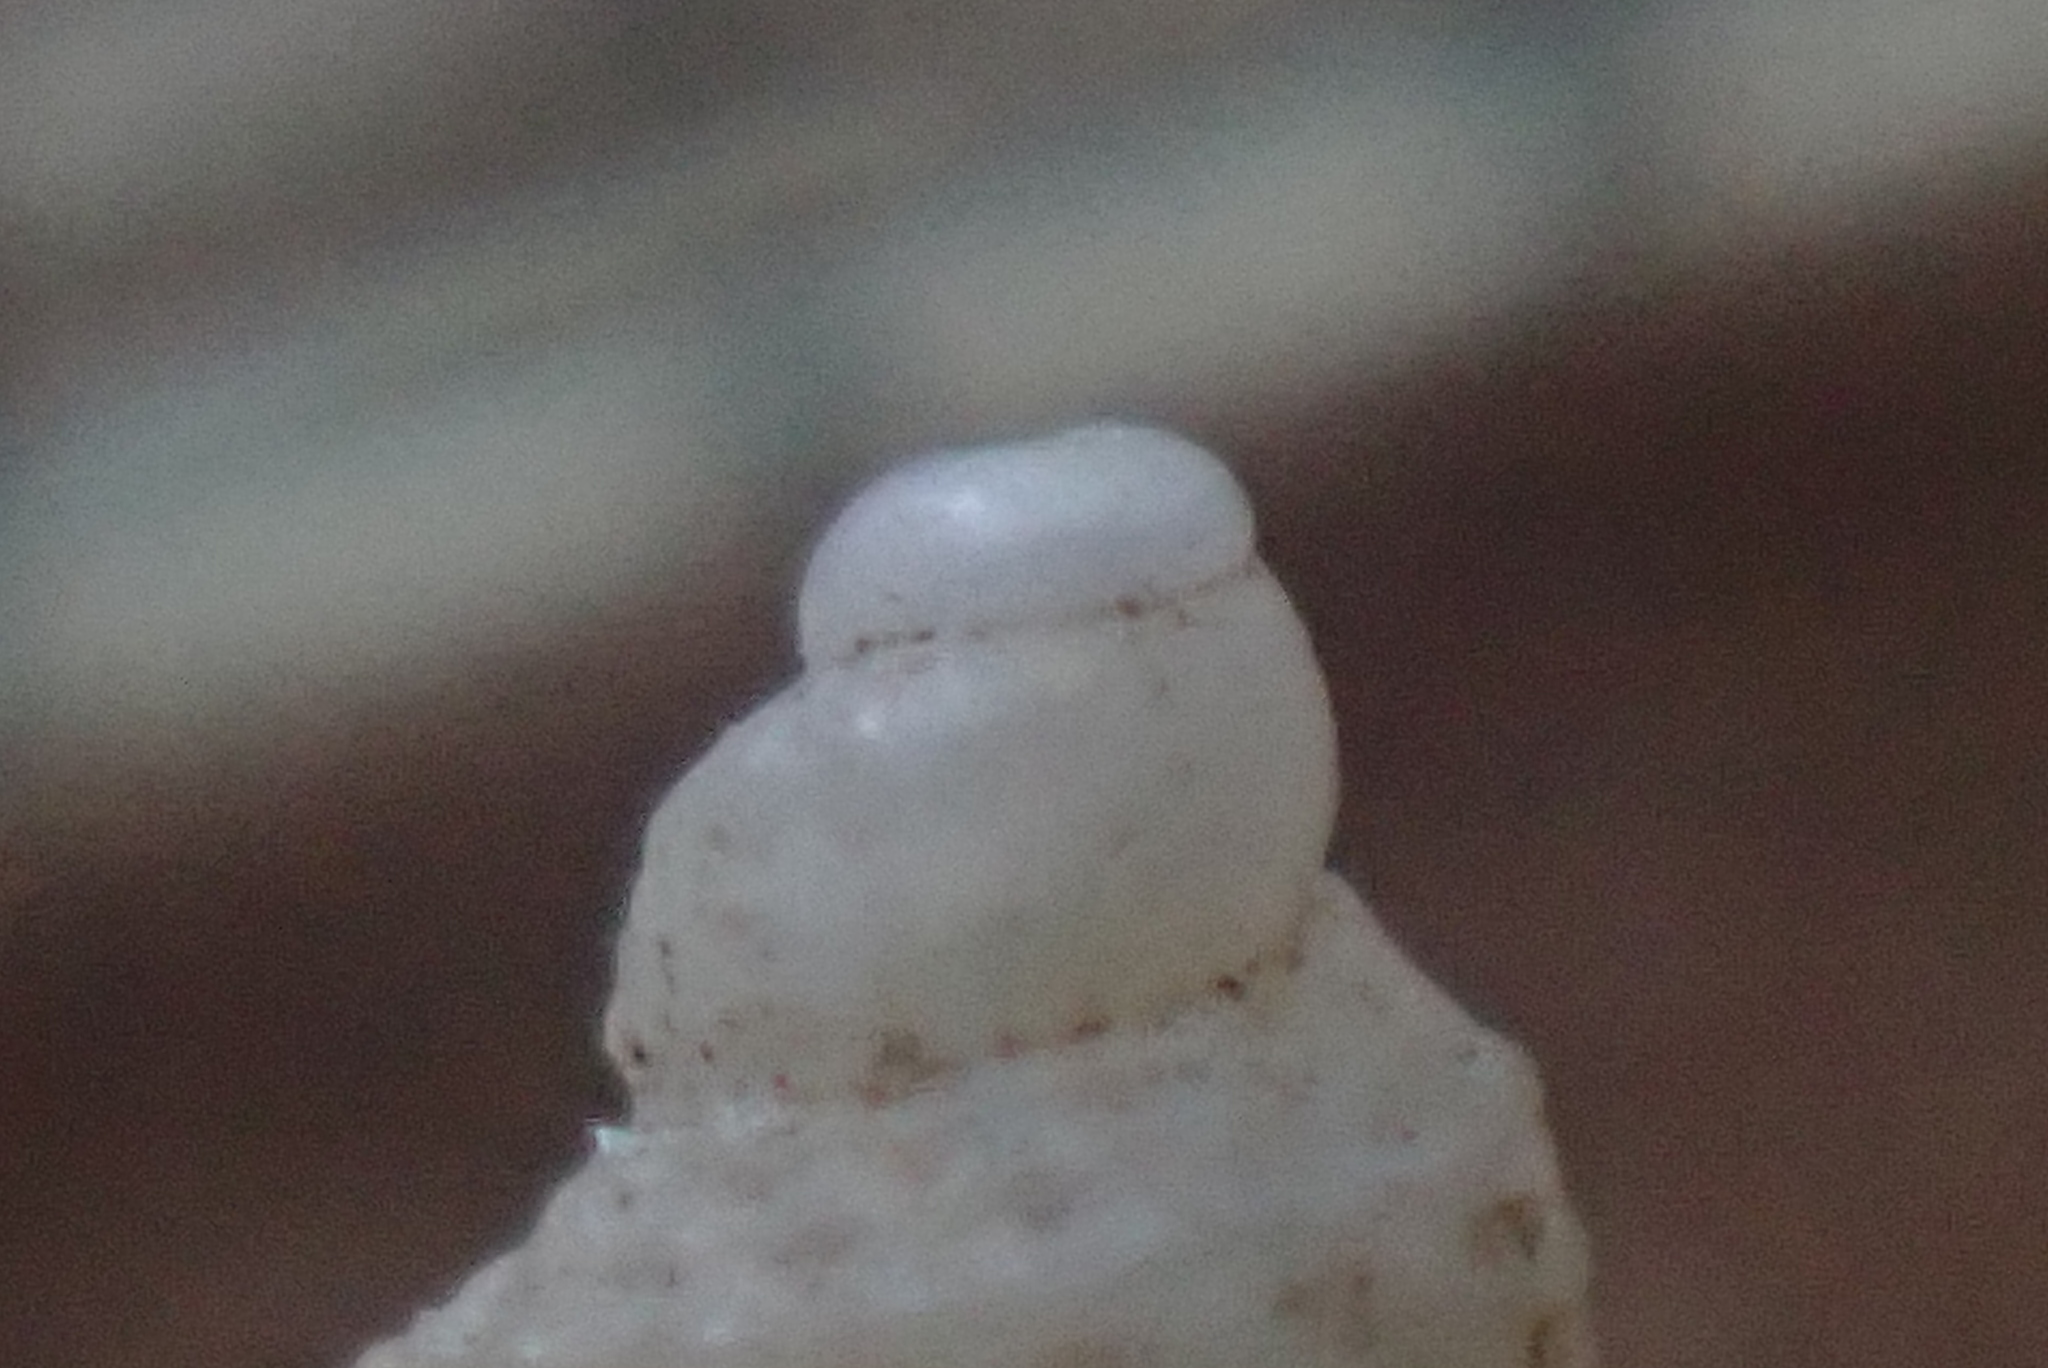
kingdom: Animalia
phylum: Mollusca
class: Gastropoda
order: Littorinimorpha
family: Capulidae
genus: Trichosirius
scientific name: Trichosirius inornatus
